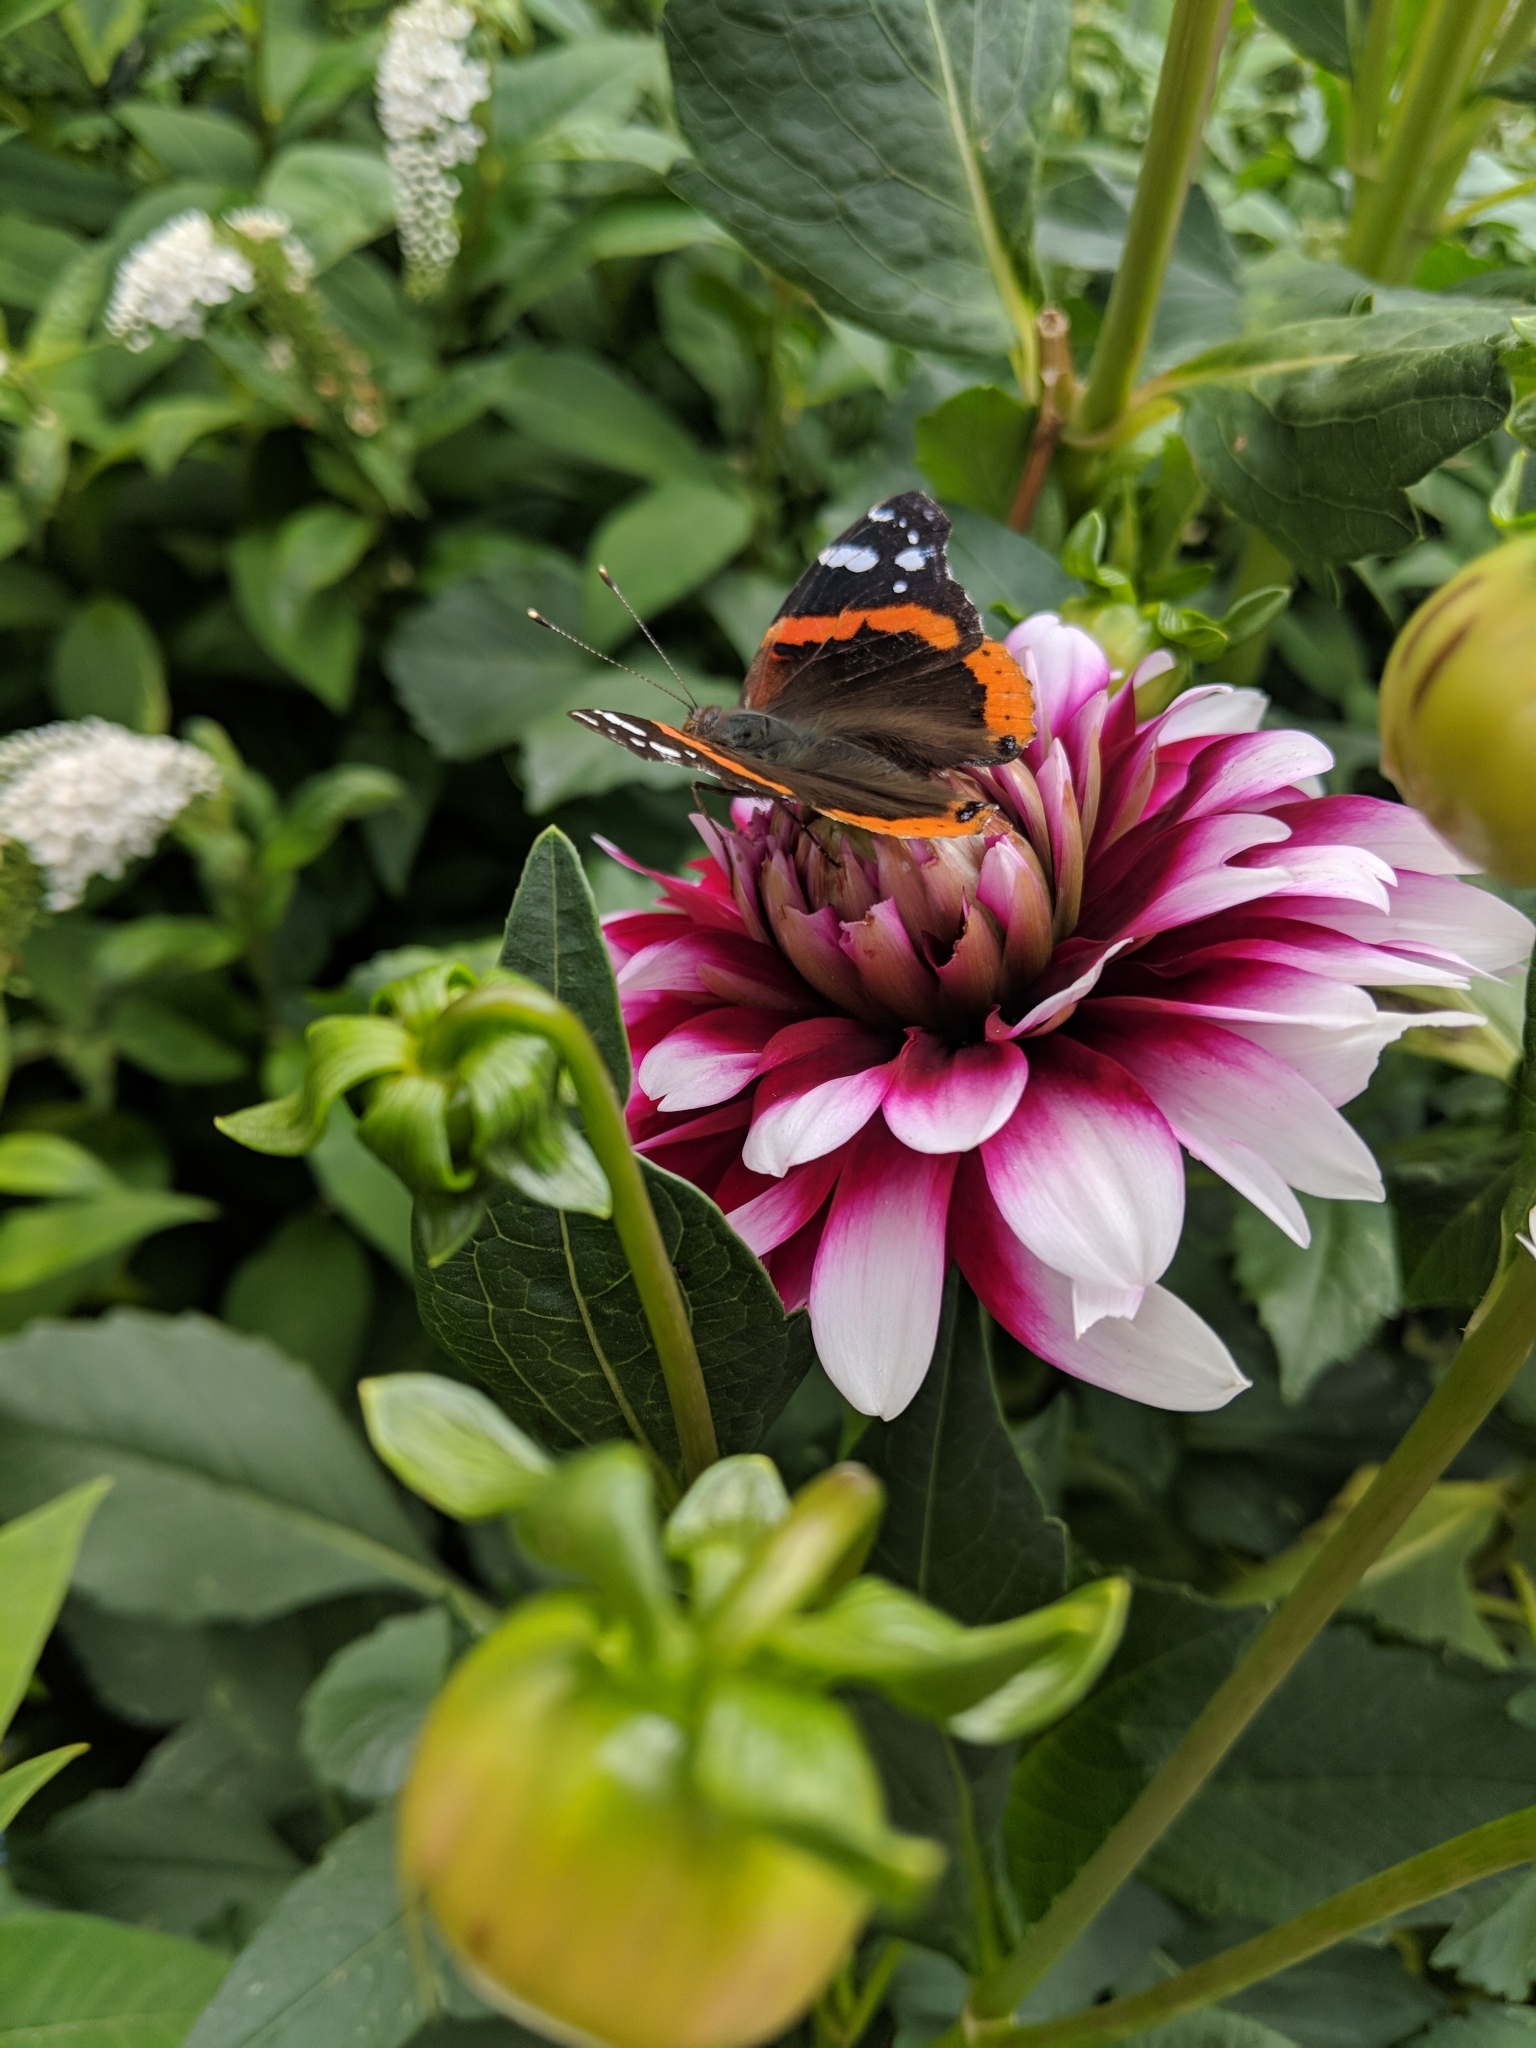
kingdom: Animalia
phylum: Arthropoda
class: Insecta
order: Lepidoptera
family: Nymphalidae
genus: Vanessa
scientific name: Vanessa atalanta
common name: Red admiral
